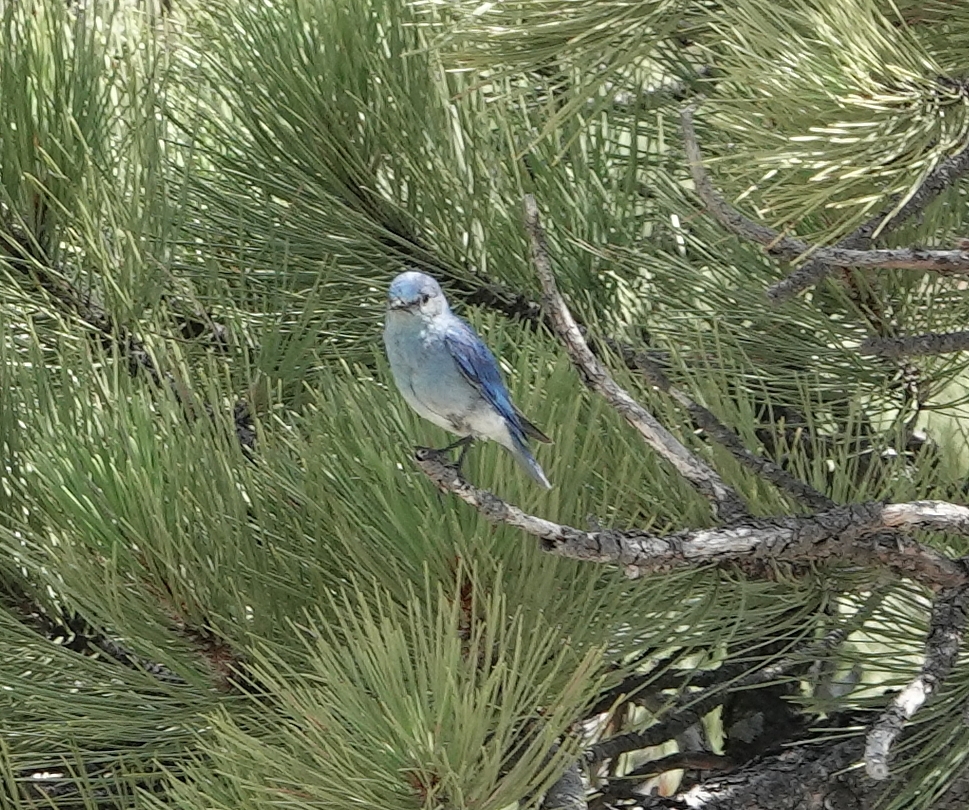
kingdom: Animalia
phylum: Chordata
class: Aves
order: Passeriformes
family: Turdidae
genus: Sialia
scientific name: Sialia currucoides
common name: Mountain bluebird
